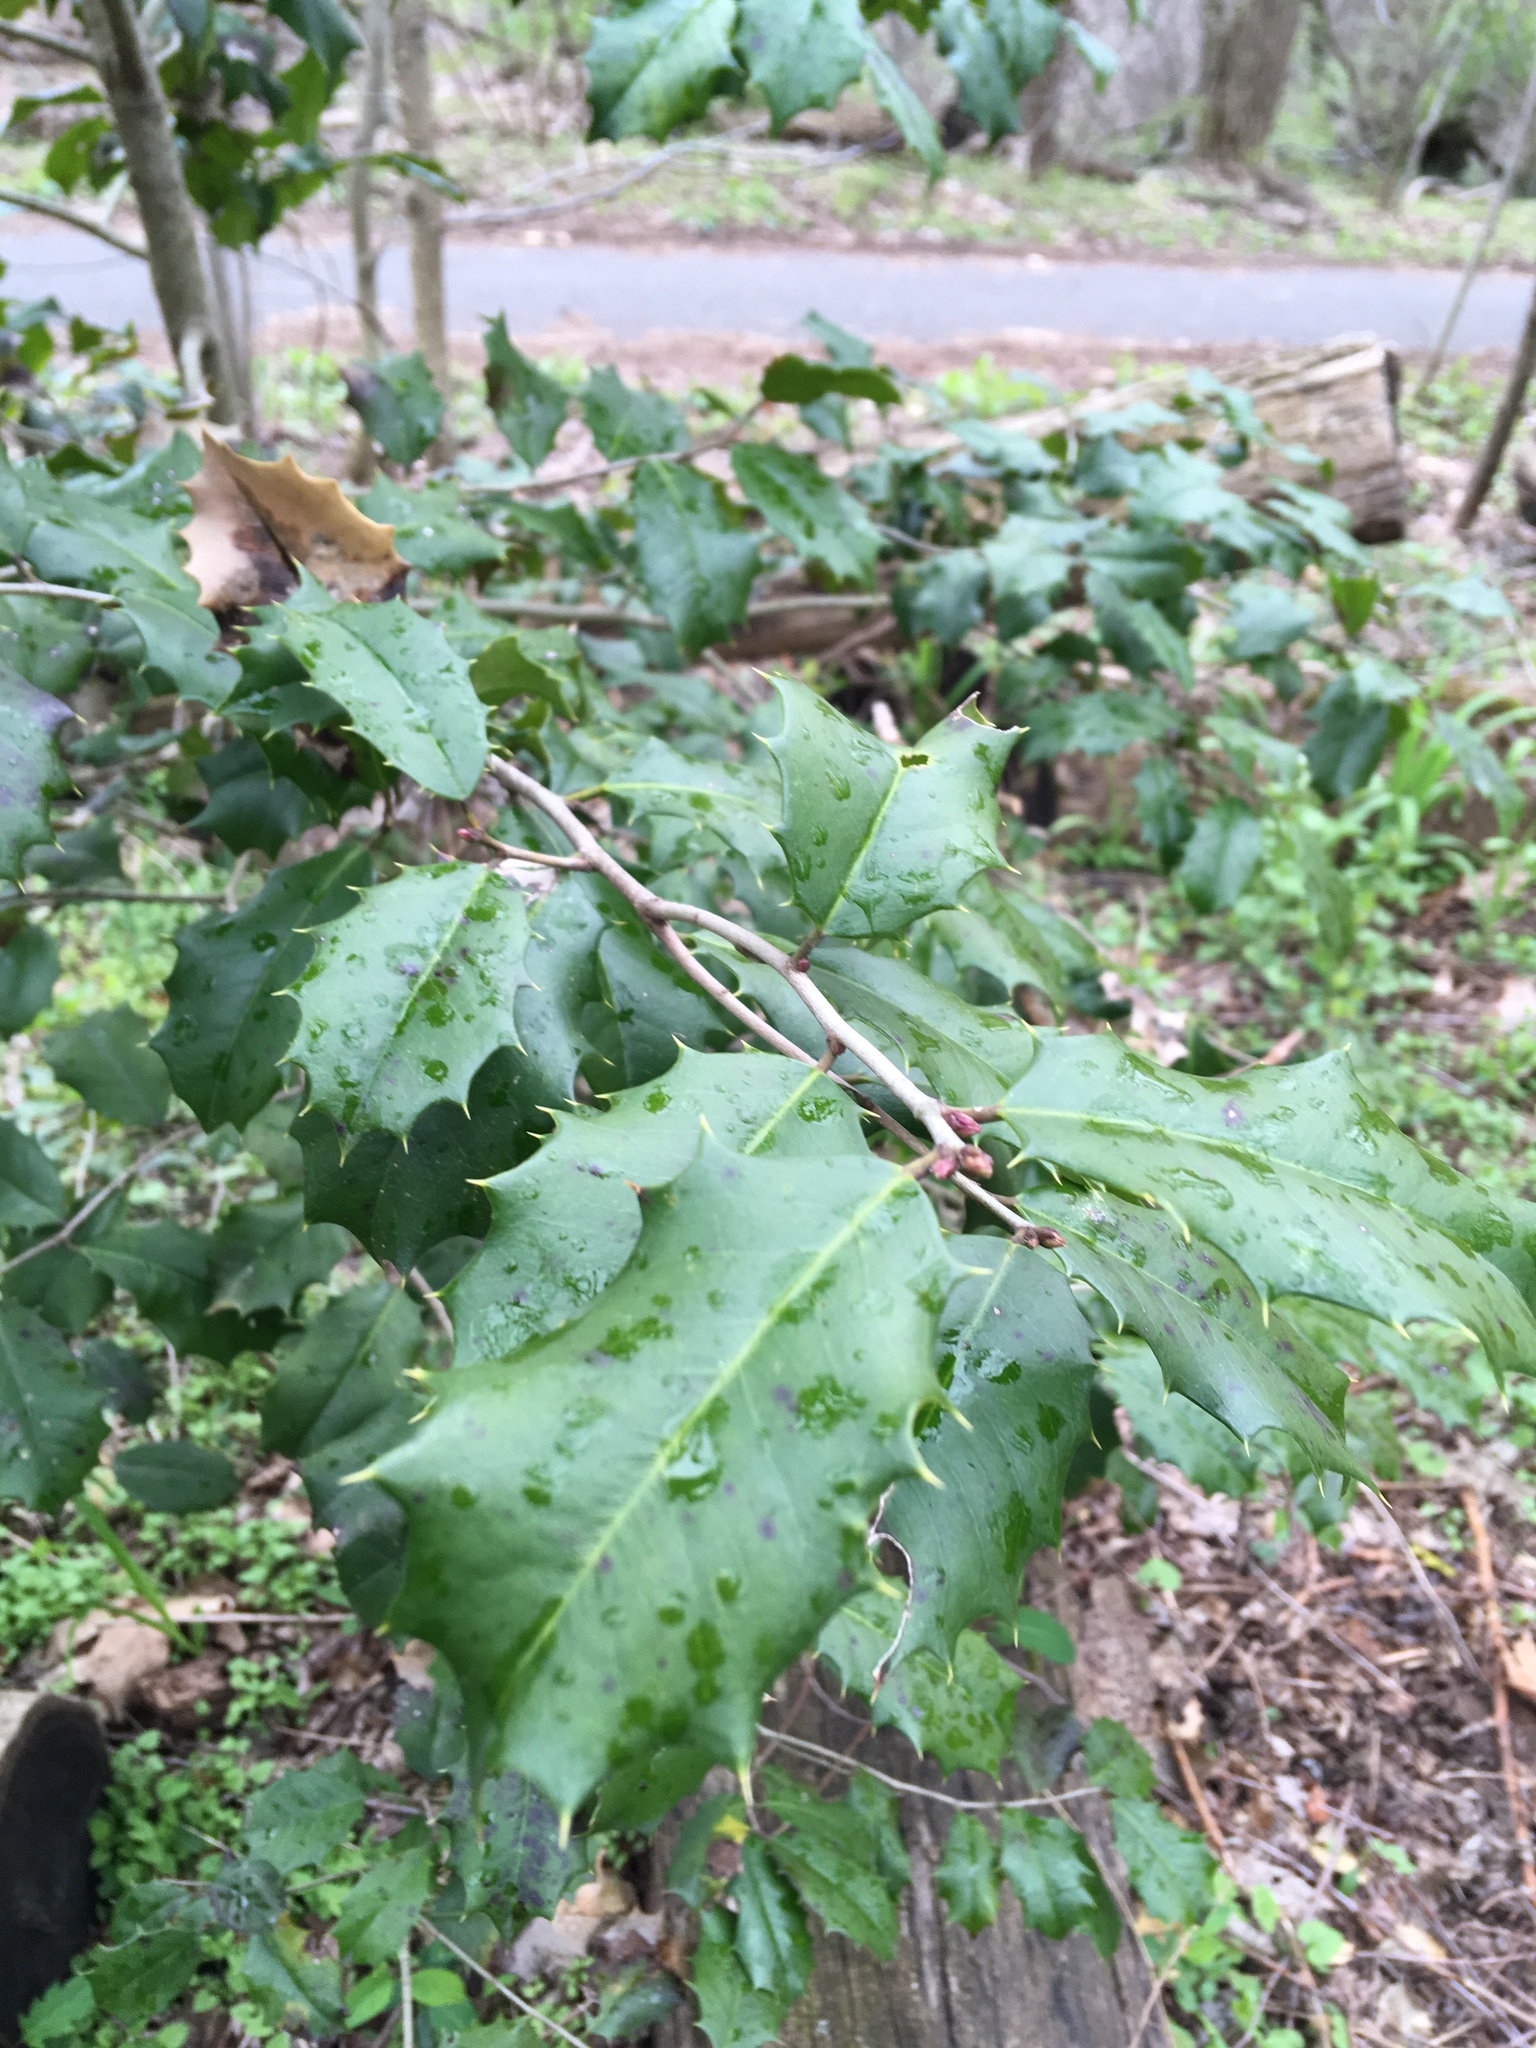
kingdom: Plantae
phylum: Tracheophyta
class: Magnoliopsida
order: Aquifoliales
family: Aquifoliaceae
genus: Ilex
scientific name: Ilex opaca
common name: American holly
